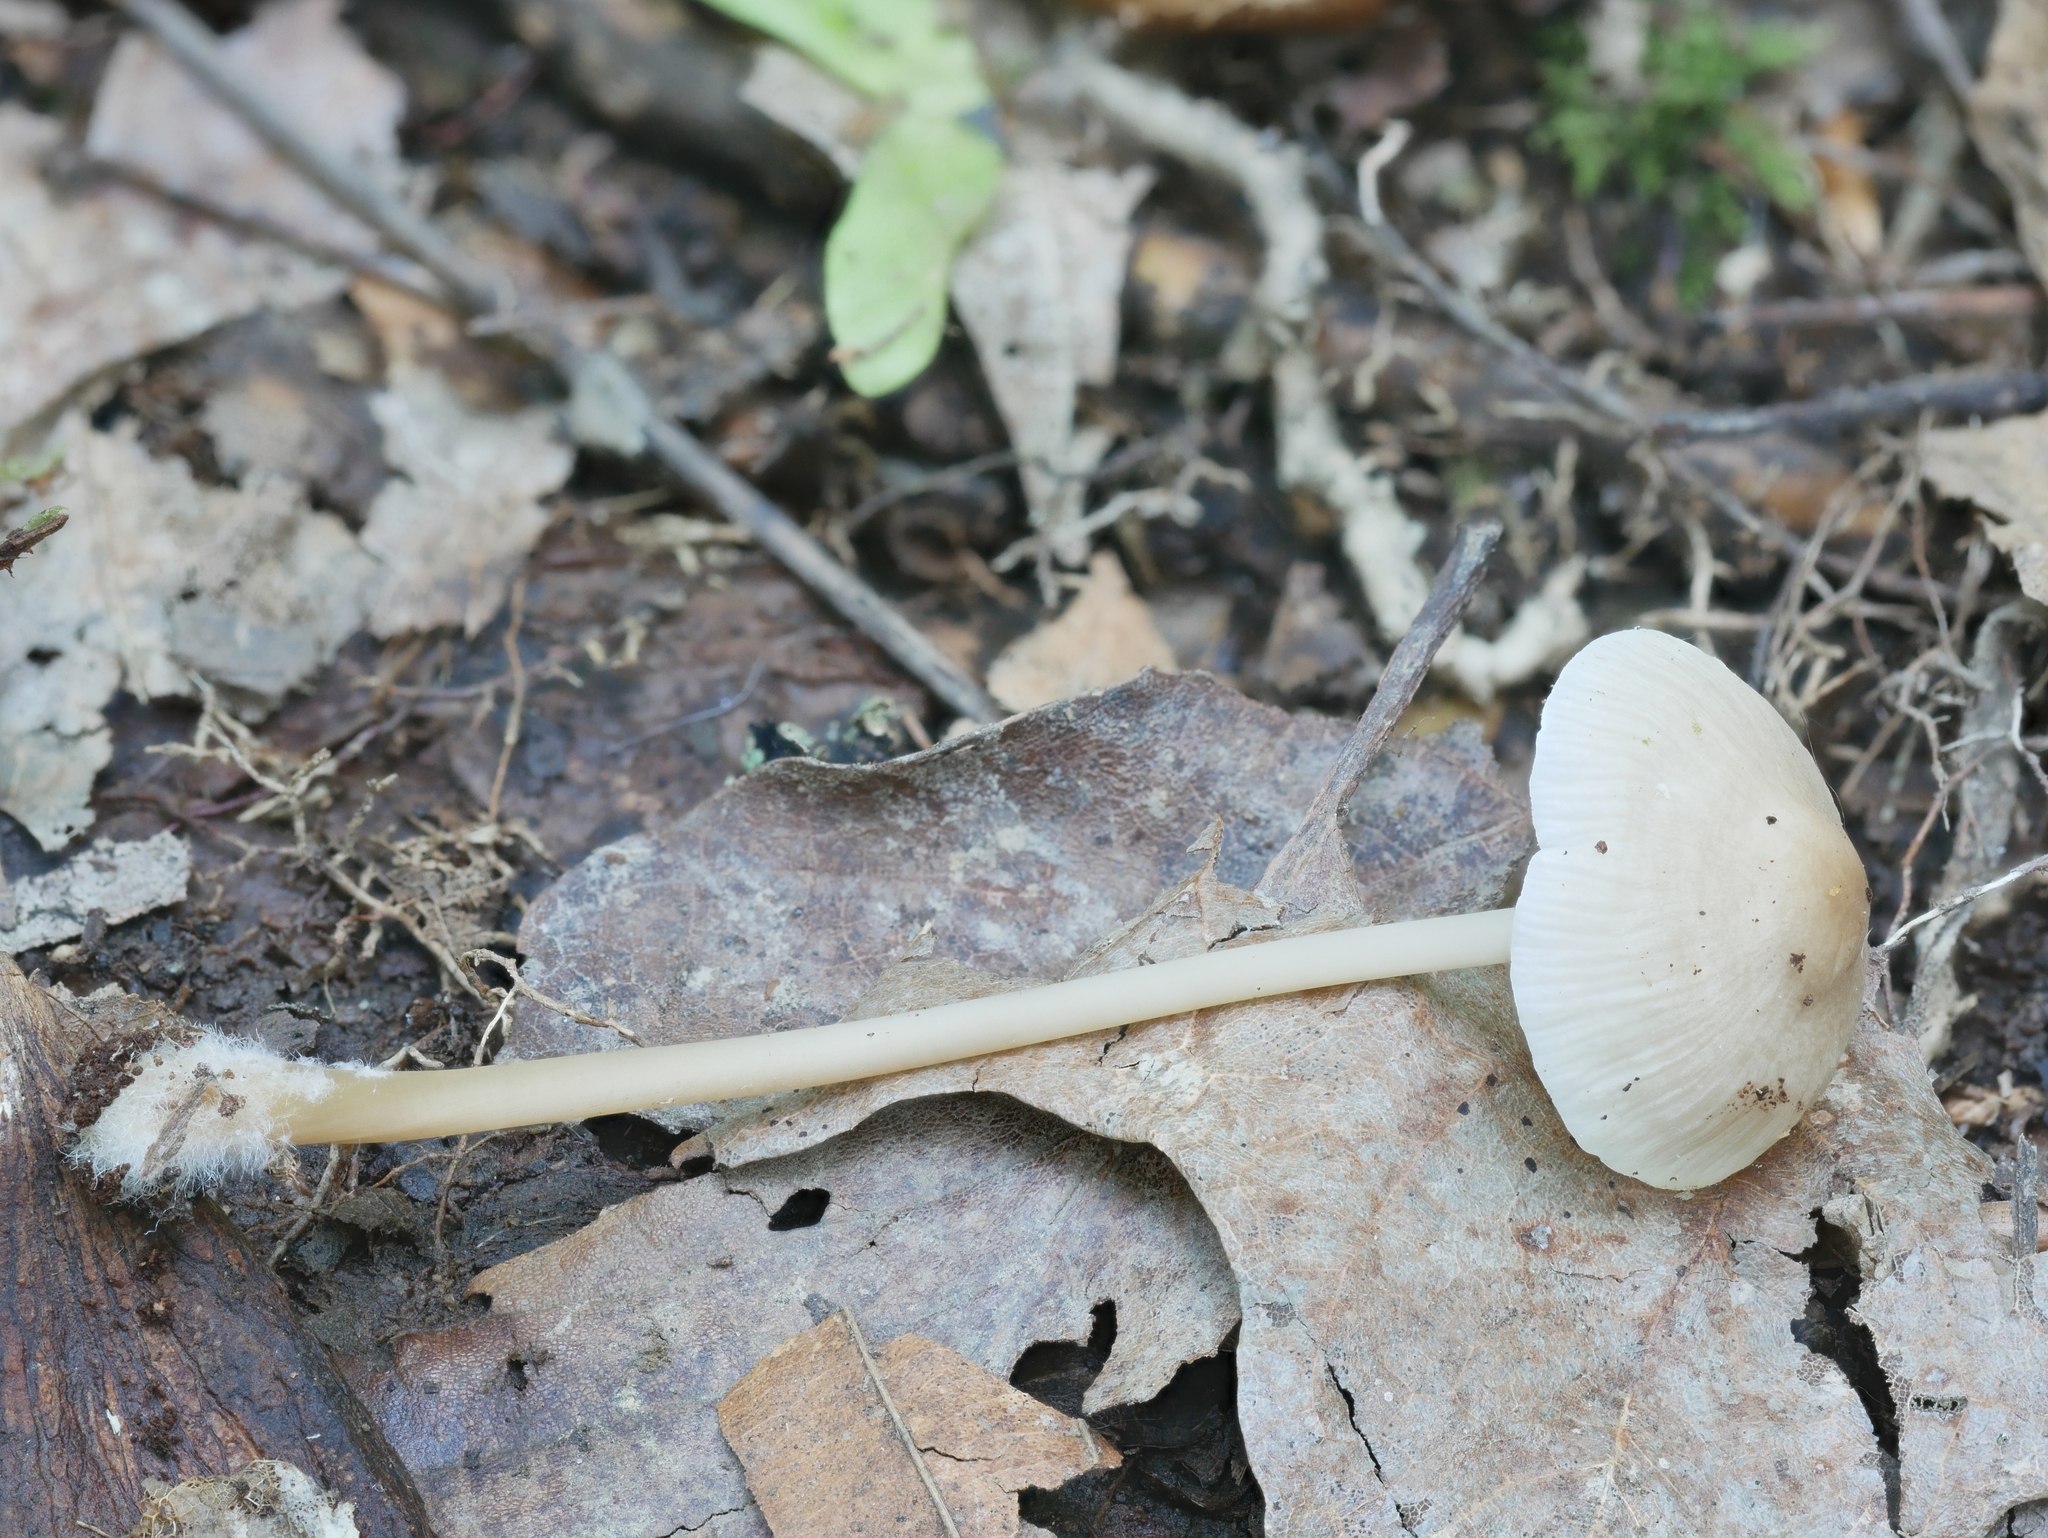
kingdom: Fungi
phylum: Basidiomycota
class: Agaricomycetes
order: Agaricales
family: Mycenaceae
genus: Mycena
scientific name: Mycena galericulata
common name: Bonnet mycena
